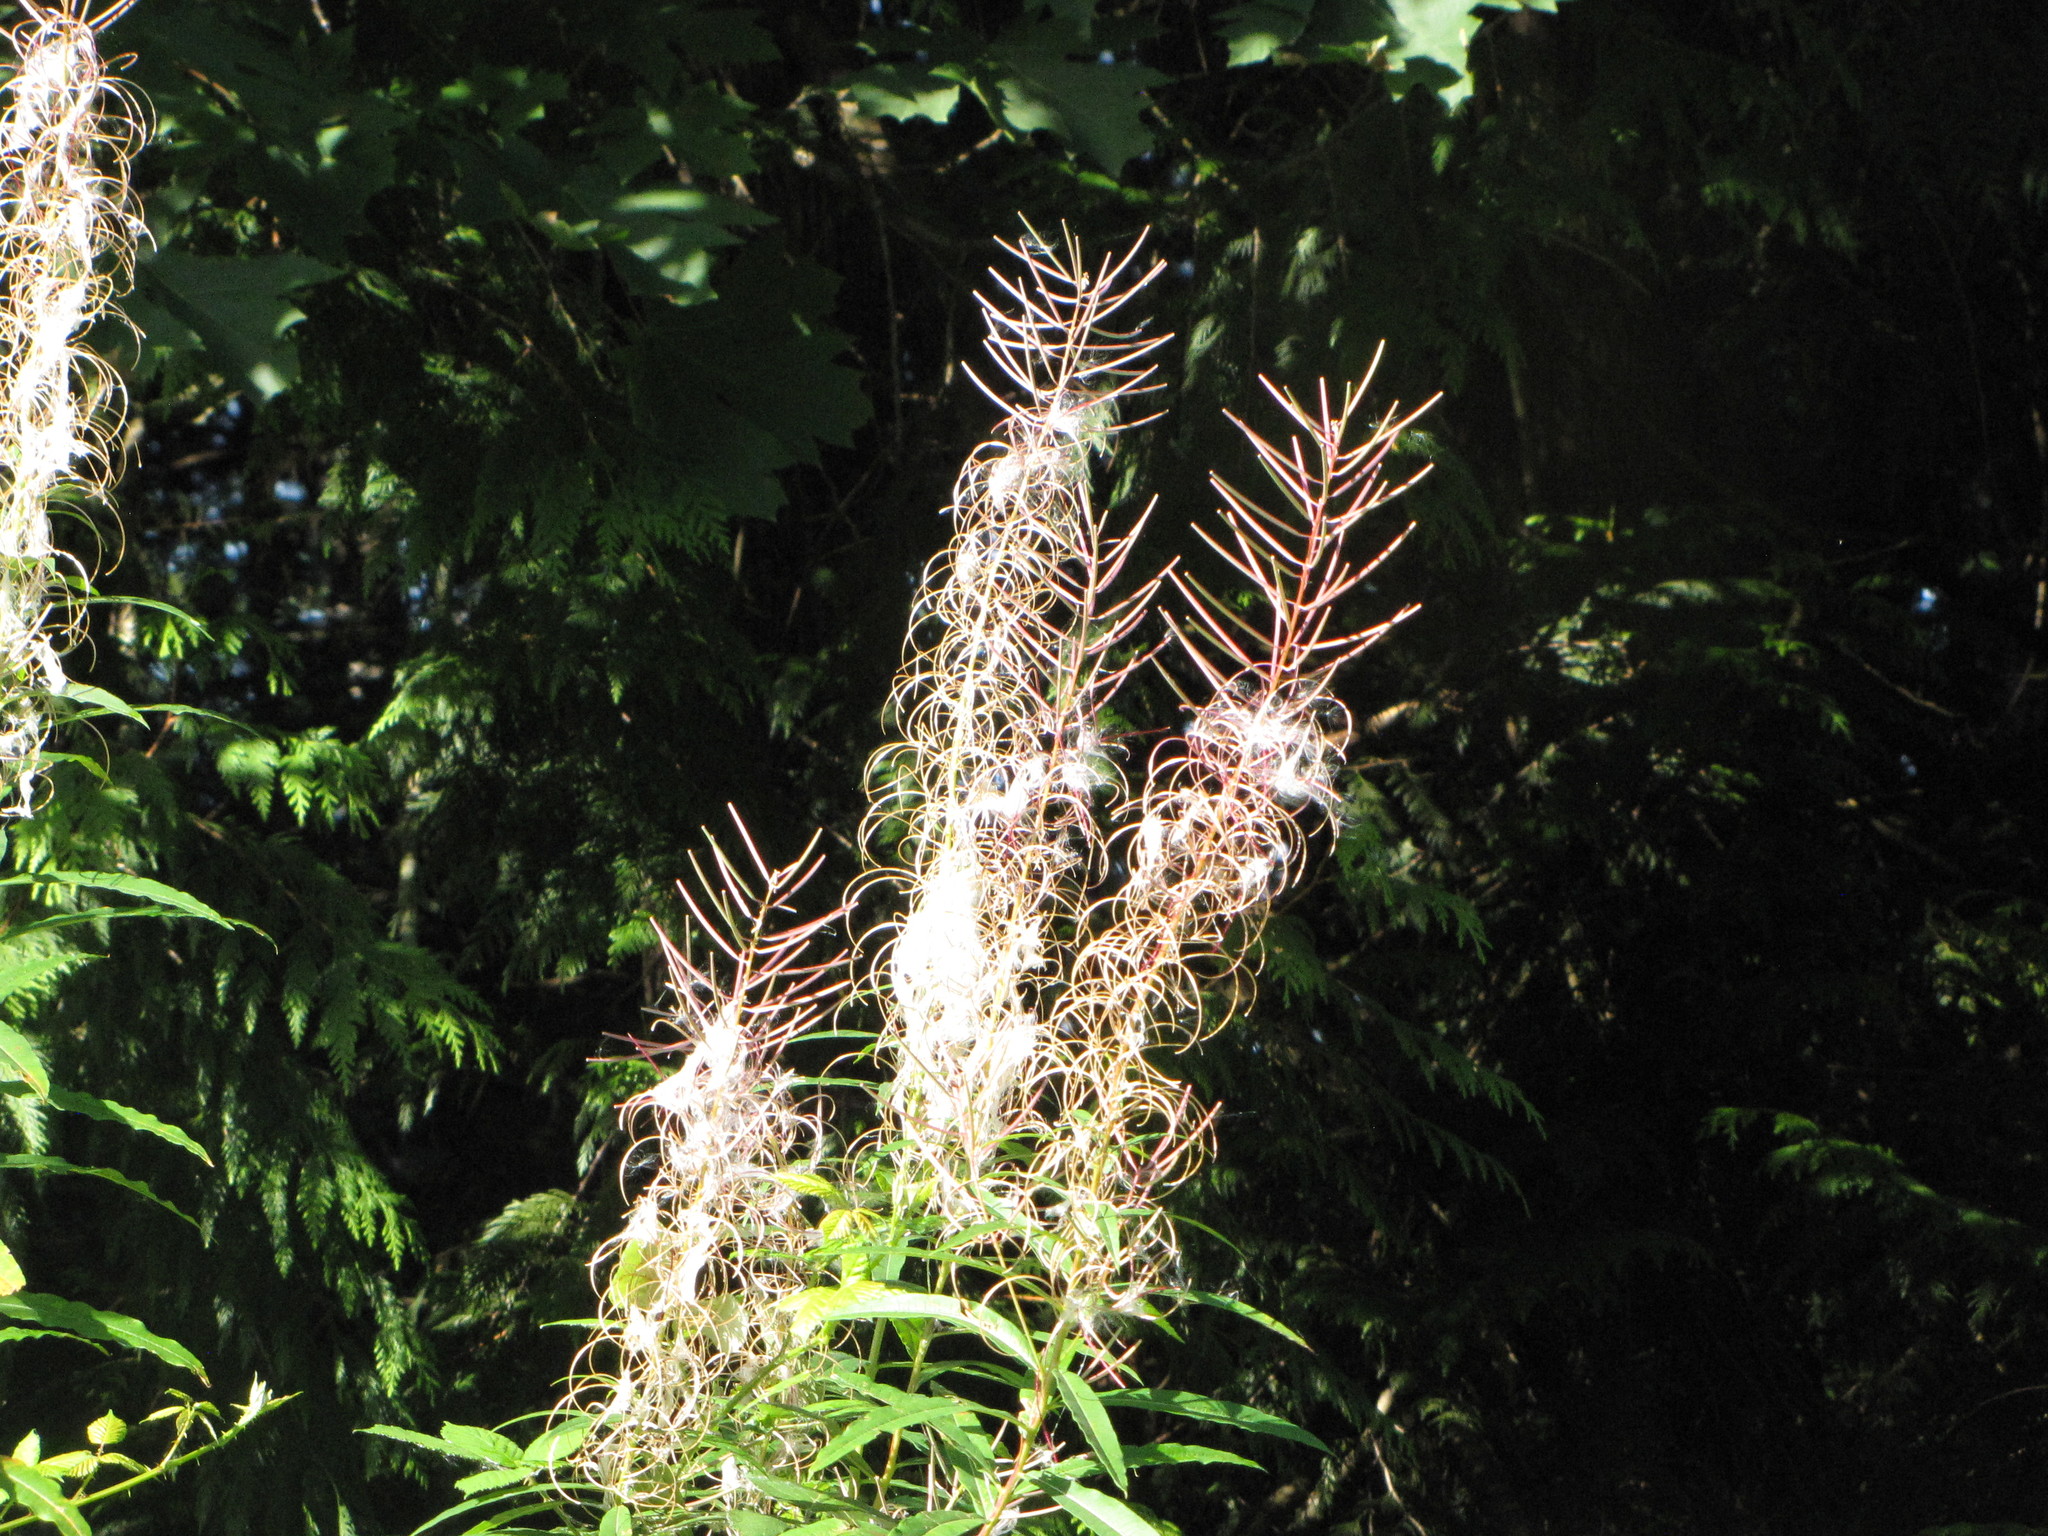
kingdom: Plantae
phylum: Tracheophyta
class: Magnoliopsida
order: Myrtales
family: Onagraceae
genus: Chamaenerion
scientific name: Chamaenerion angustifolium
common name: Fireweed
